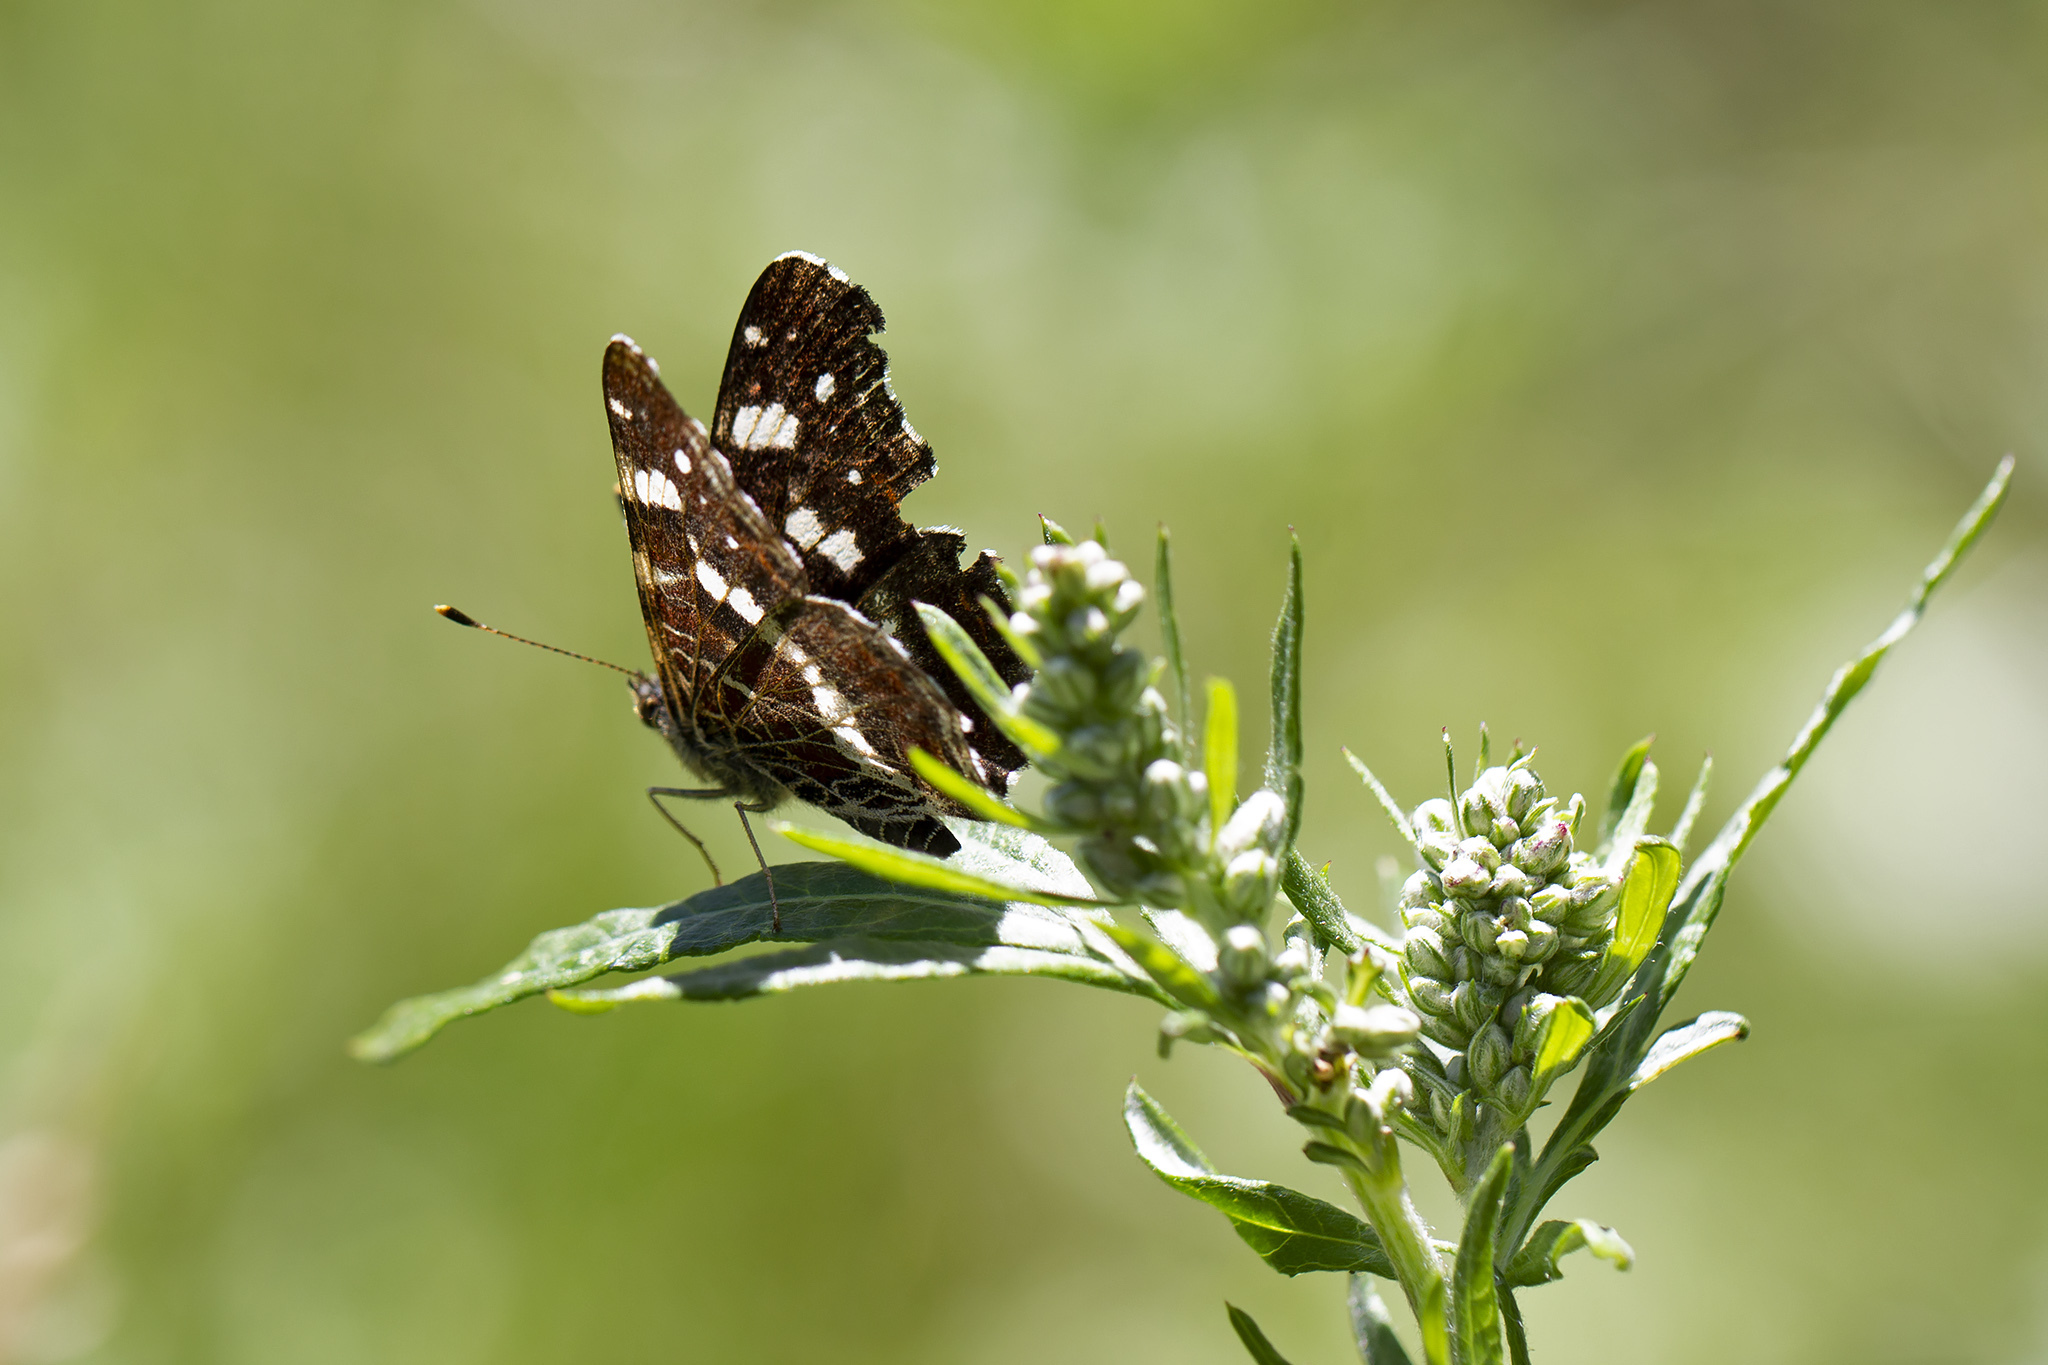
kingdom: Animalia
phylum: Arthropoda
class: Insecta
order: Lepidoptera
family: Nymphalidae
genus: Araschnia
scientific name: Araschnia levana
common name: Map butterfly
